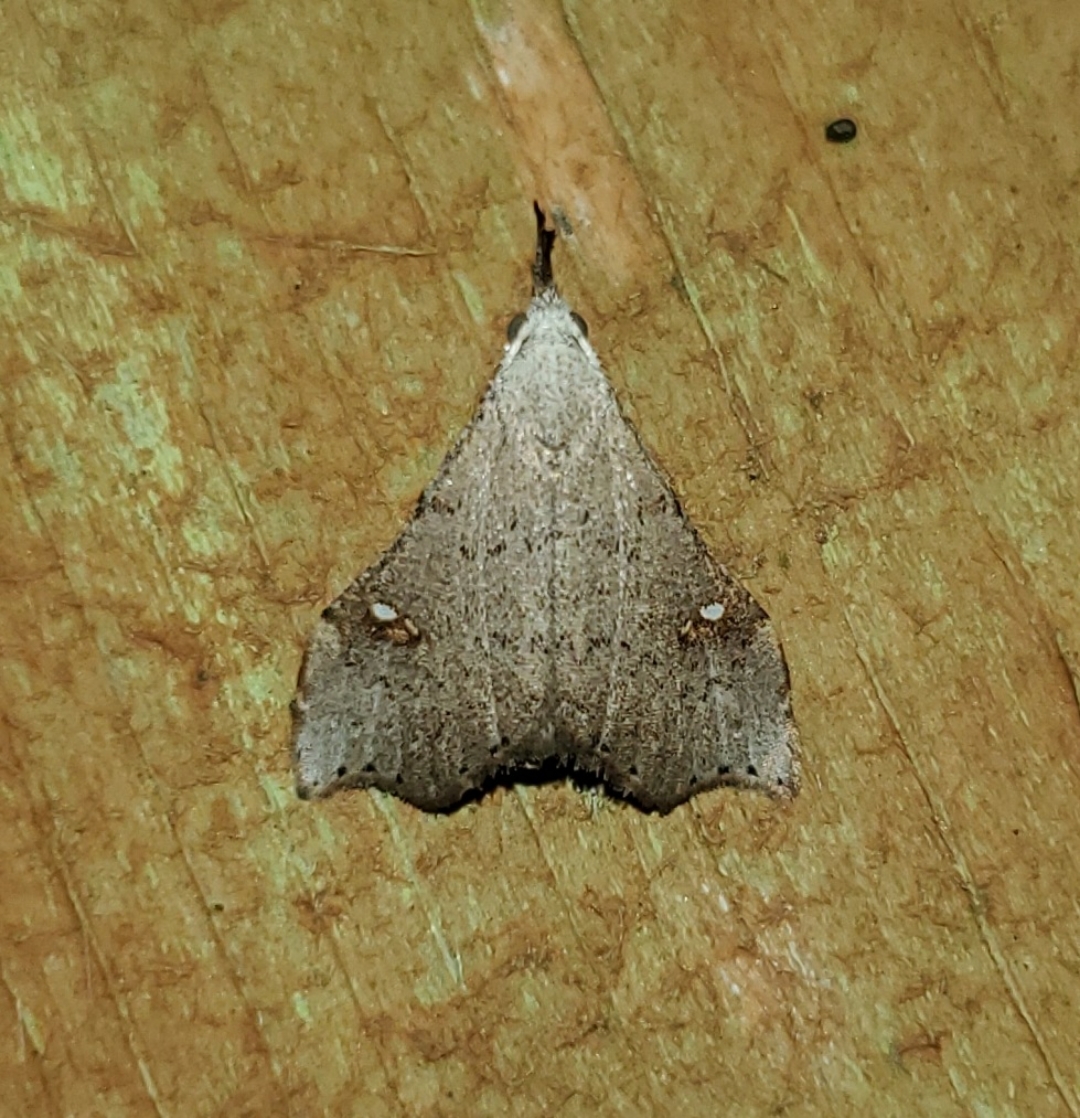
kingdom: Animalia
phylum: Arthropoda
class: Insecta
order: Lepidoptera
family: Erebidae
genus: Redectis
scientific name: Redectis vitrea
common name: White-spotted redectis
